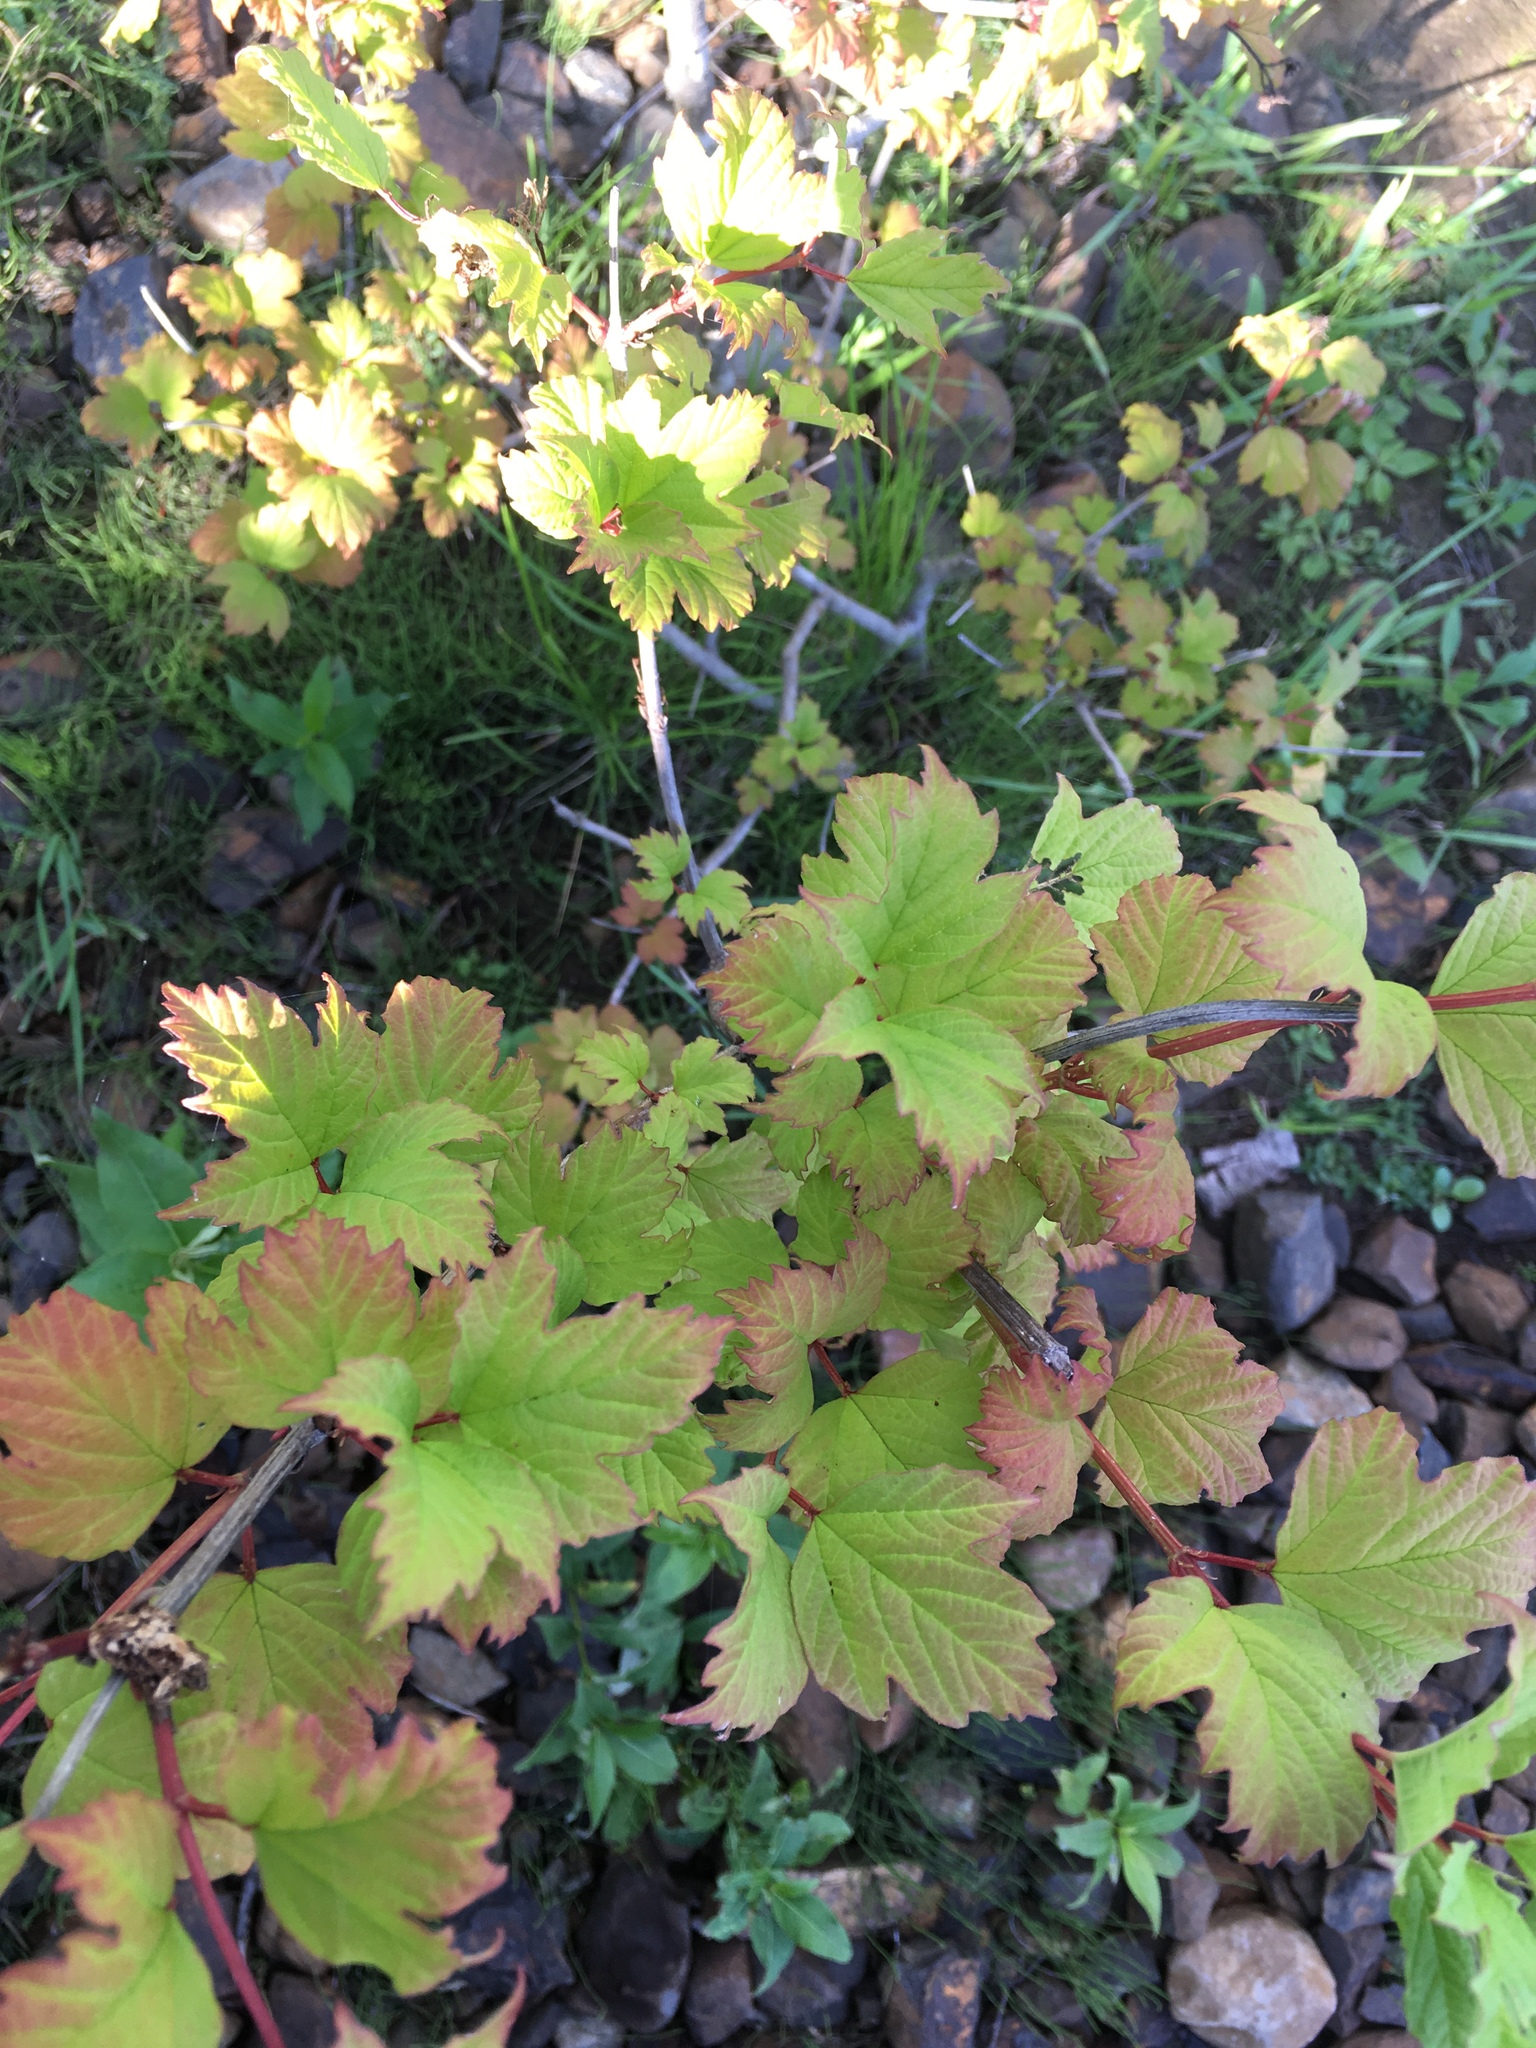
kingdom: Plantae
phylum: Tracheophyta
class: Magnoliopsida
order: Dipsacales
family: Viburnaceae
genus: Viburnum
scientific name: Viburnum opulus
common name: Guelder-rose
